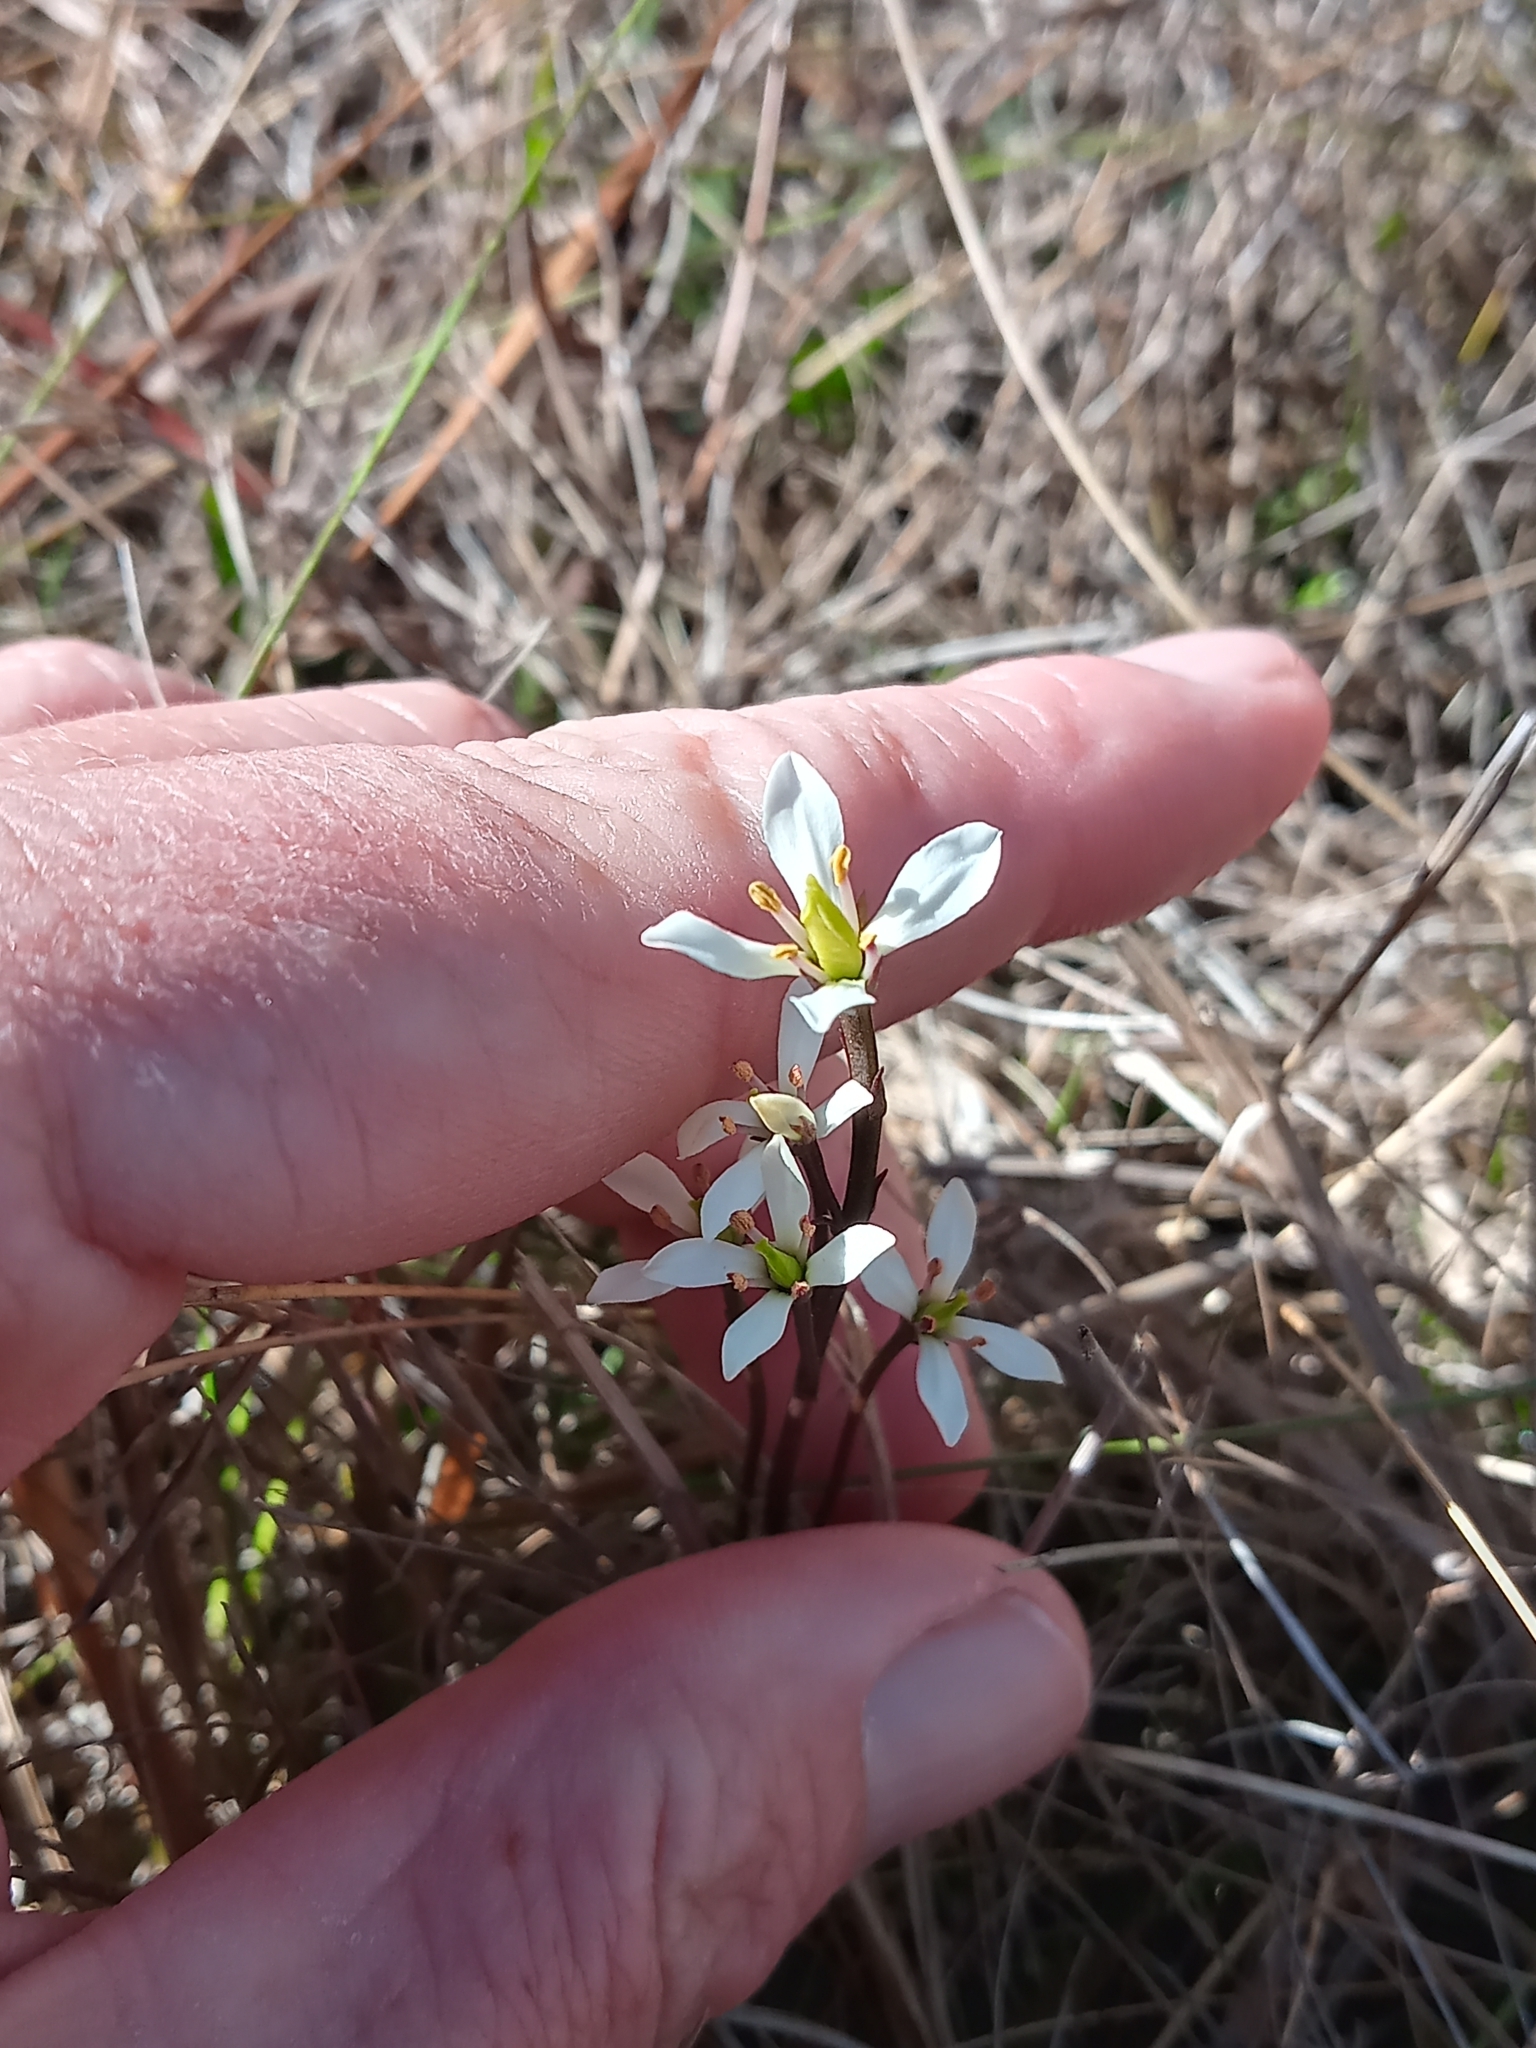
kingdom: Plantae
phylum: Tracheophyta
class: Magnoliopsida
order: Gentianales
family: Gentianaceae
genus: Bartonia
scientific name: Bartonia verna
